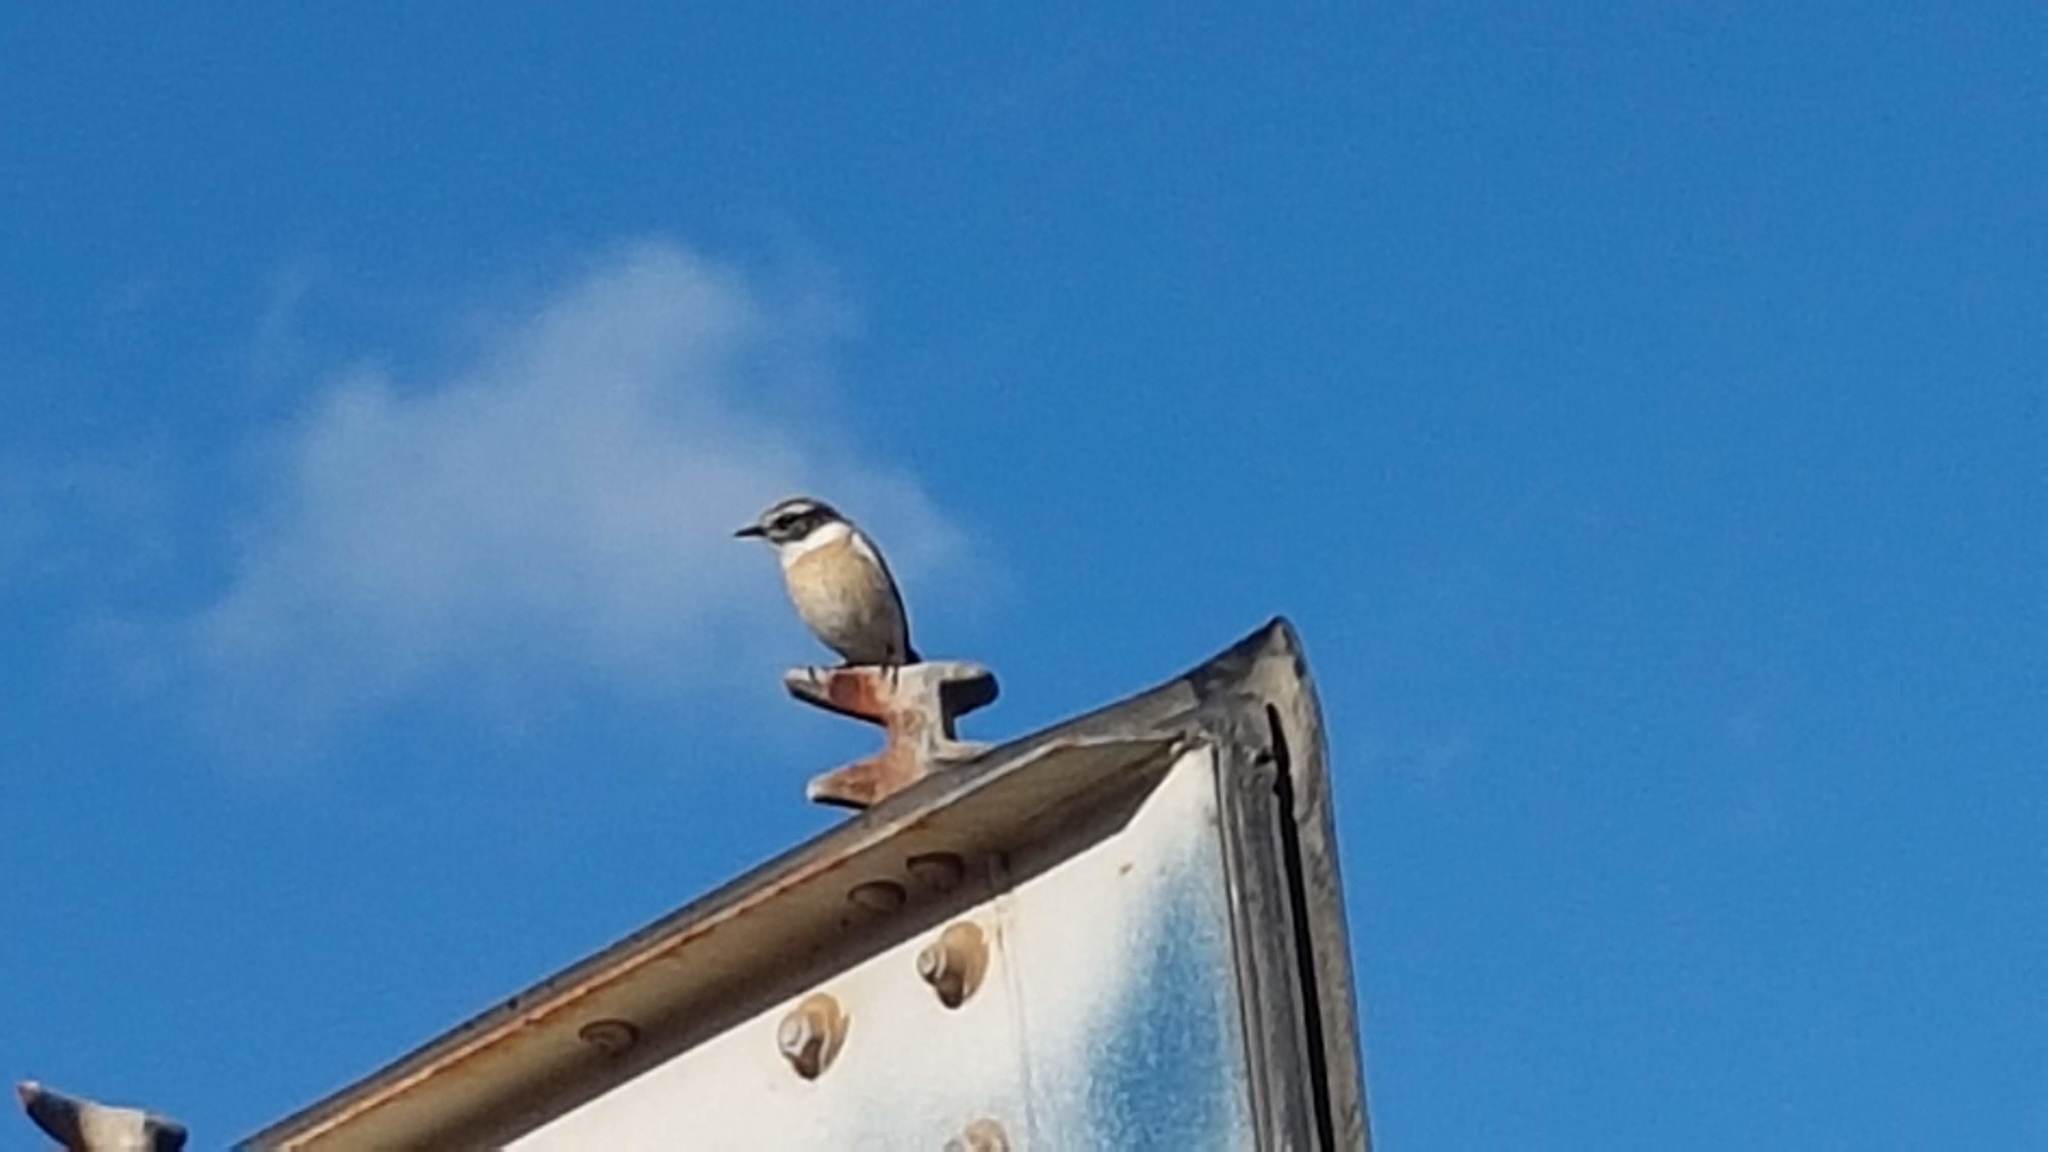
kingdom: Animalia
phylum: Chordata
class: Aves
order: Passeriformes
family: Muscicapidae
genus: Saxicola
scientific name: Saxicola dacotiae
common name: Canary islands stonechat
